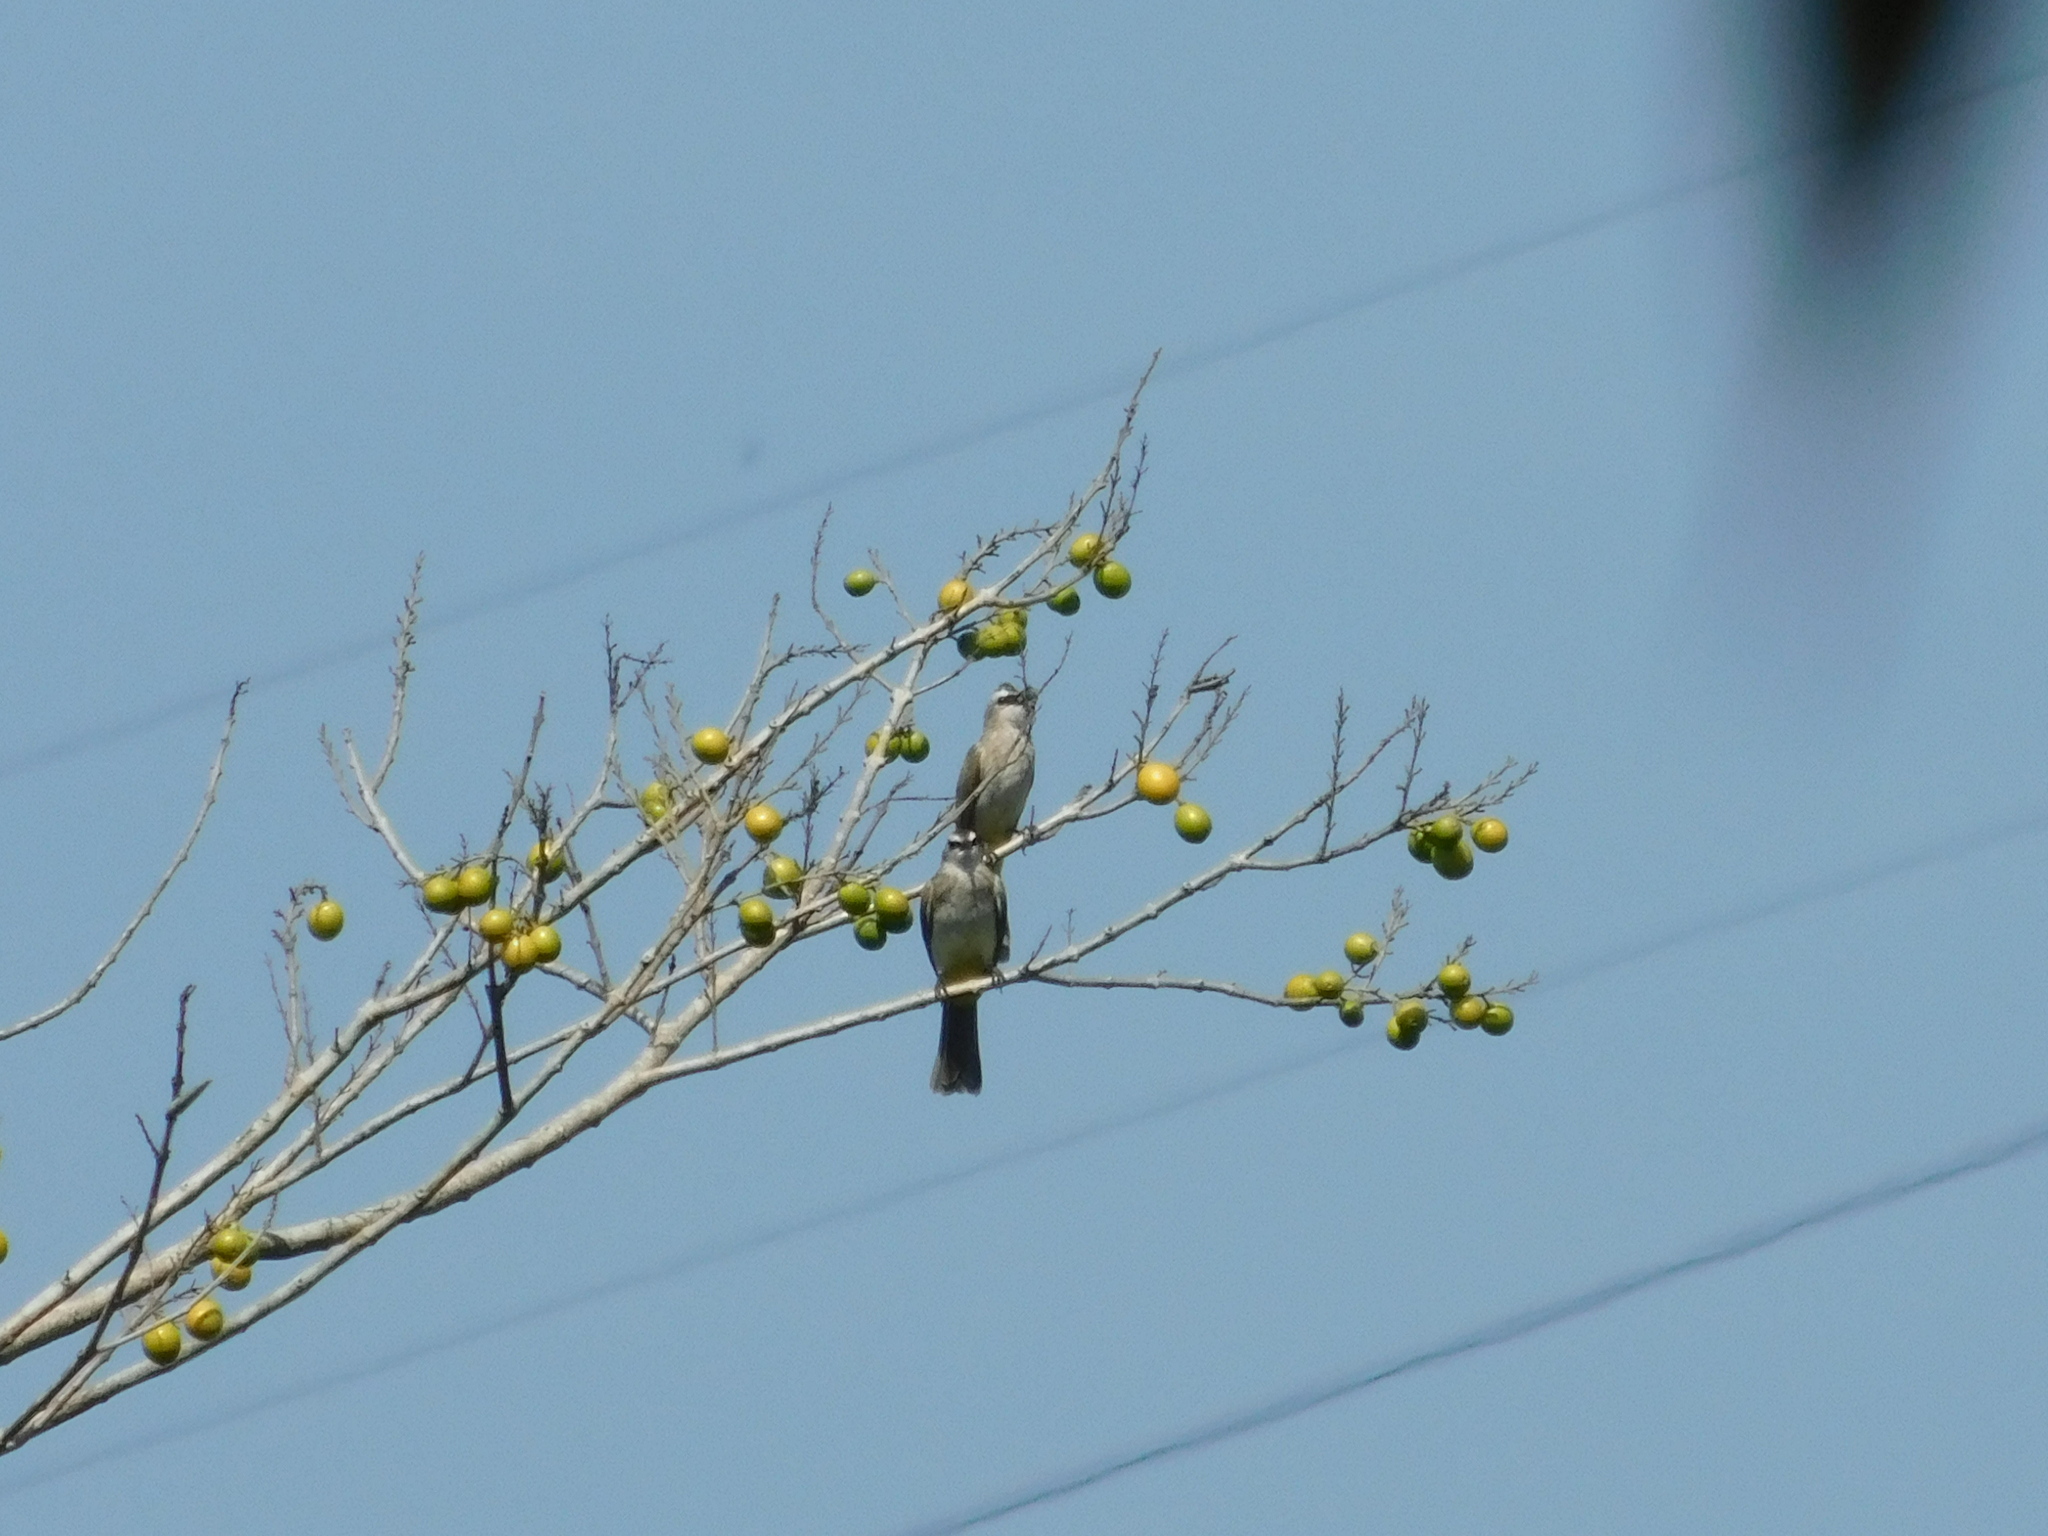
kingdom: Animalia
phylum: Chordata
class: Aves
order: Passeriformes
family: Pycnonotidae
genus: Pycnonotus
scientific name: Pycnonotus goiavier
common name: Yellow-vented bulbul
